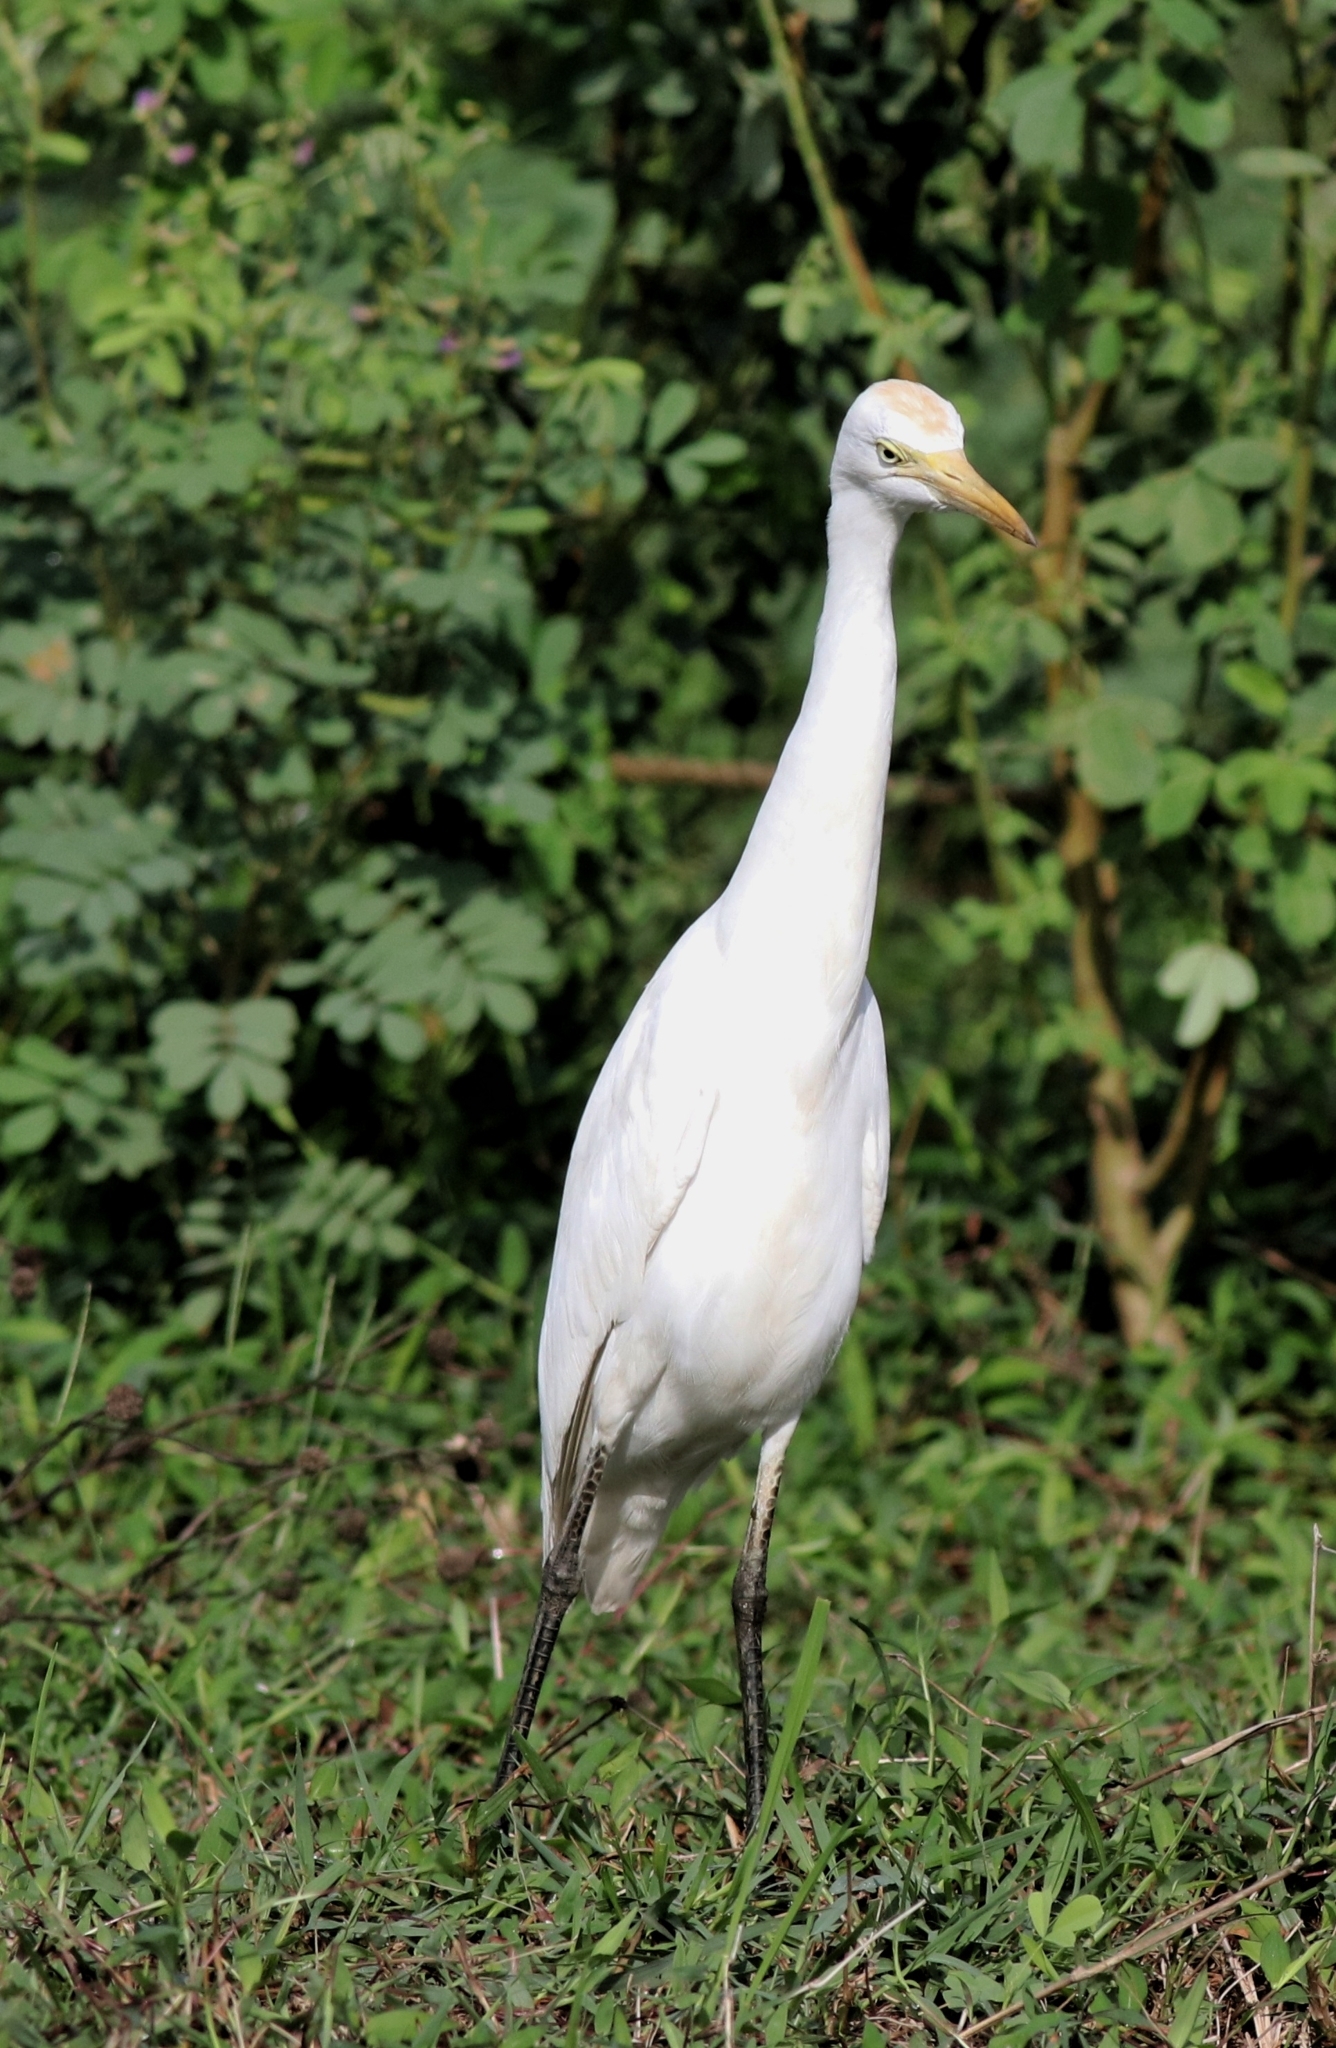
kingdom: Animalia
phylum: Chordata
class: Aves
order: Pelecaniformes
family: Ardeidae
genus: Bubulcus
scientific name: Bubulcus coromandus
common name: Eastern cattle egret
